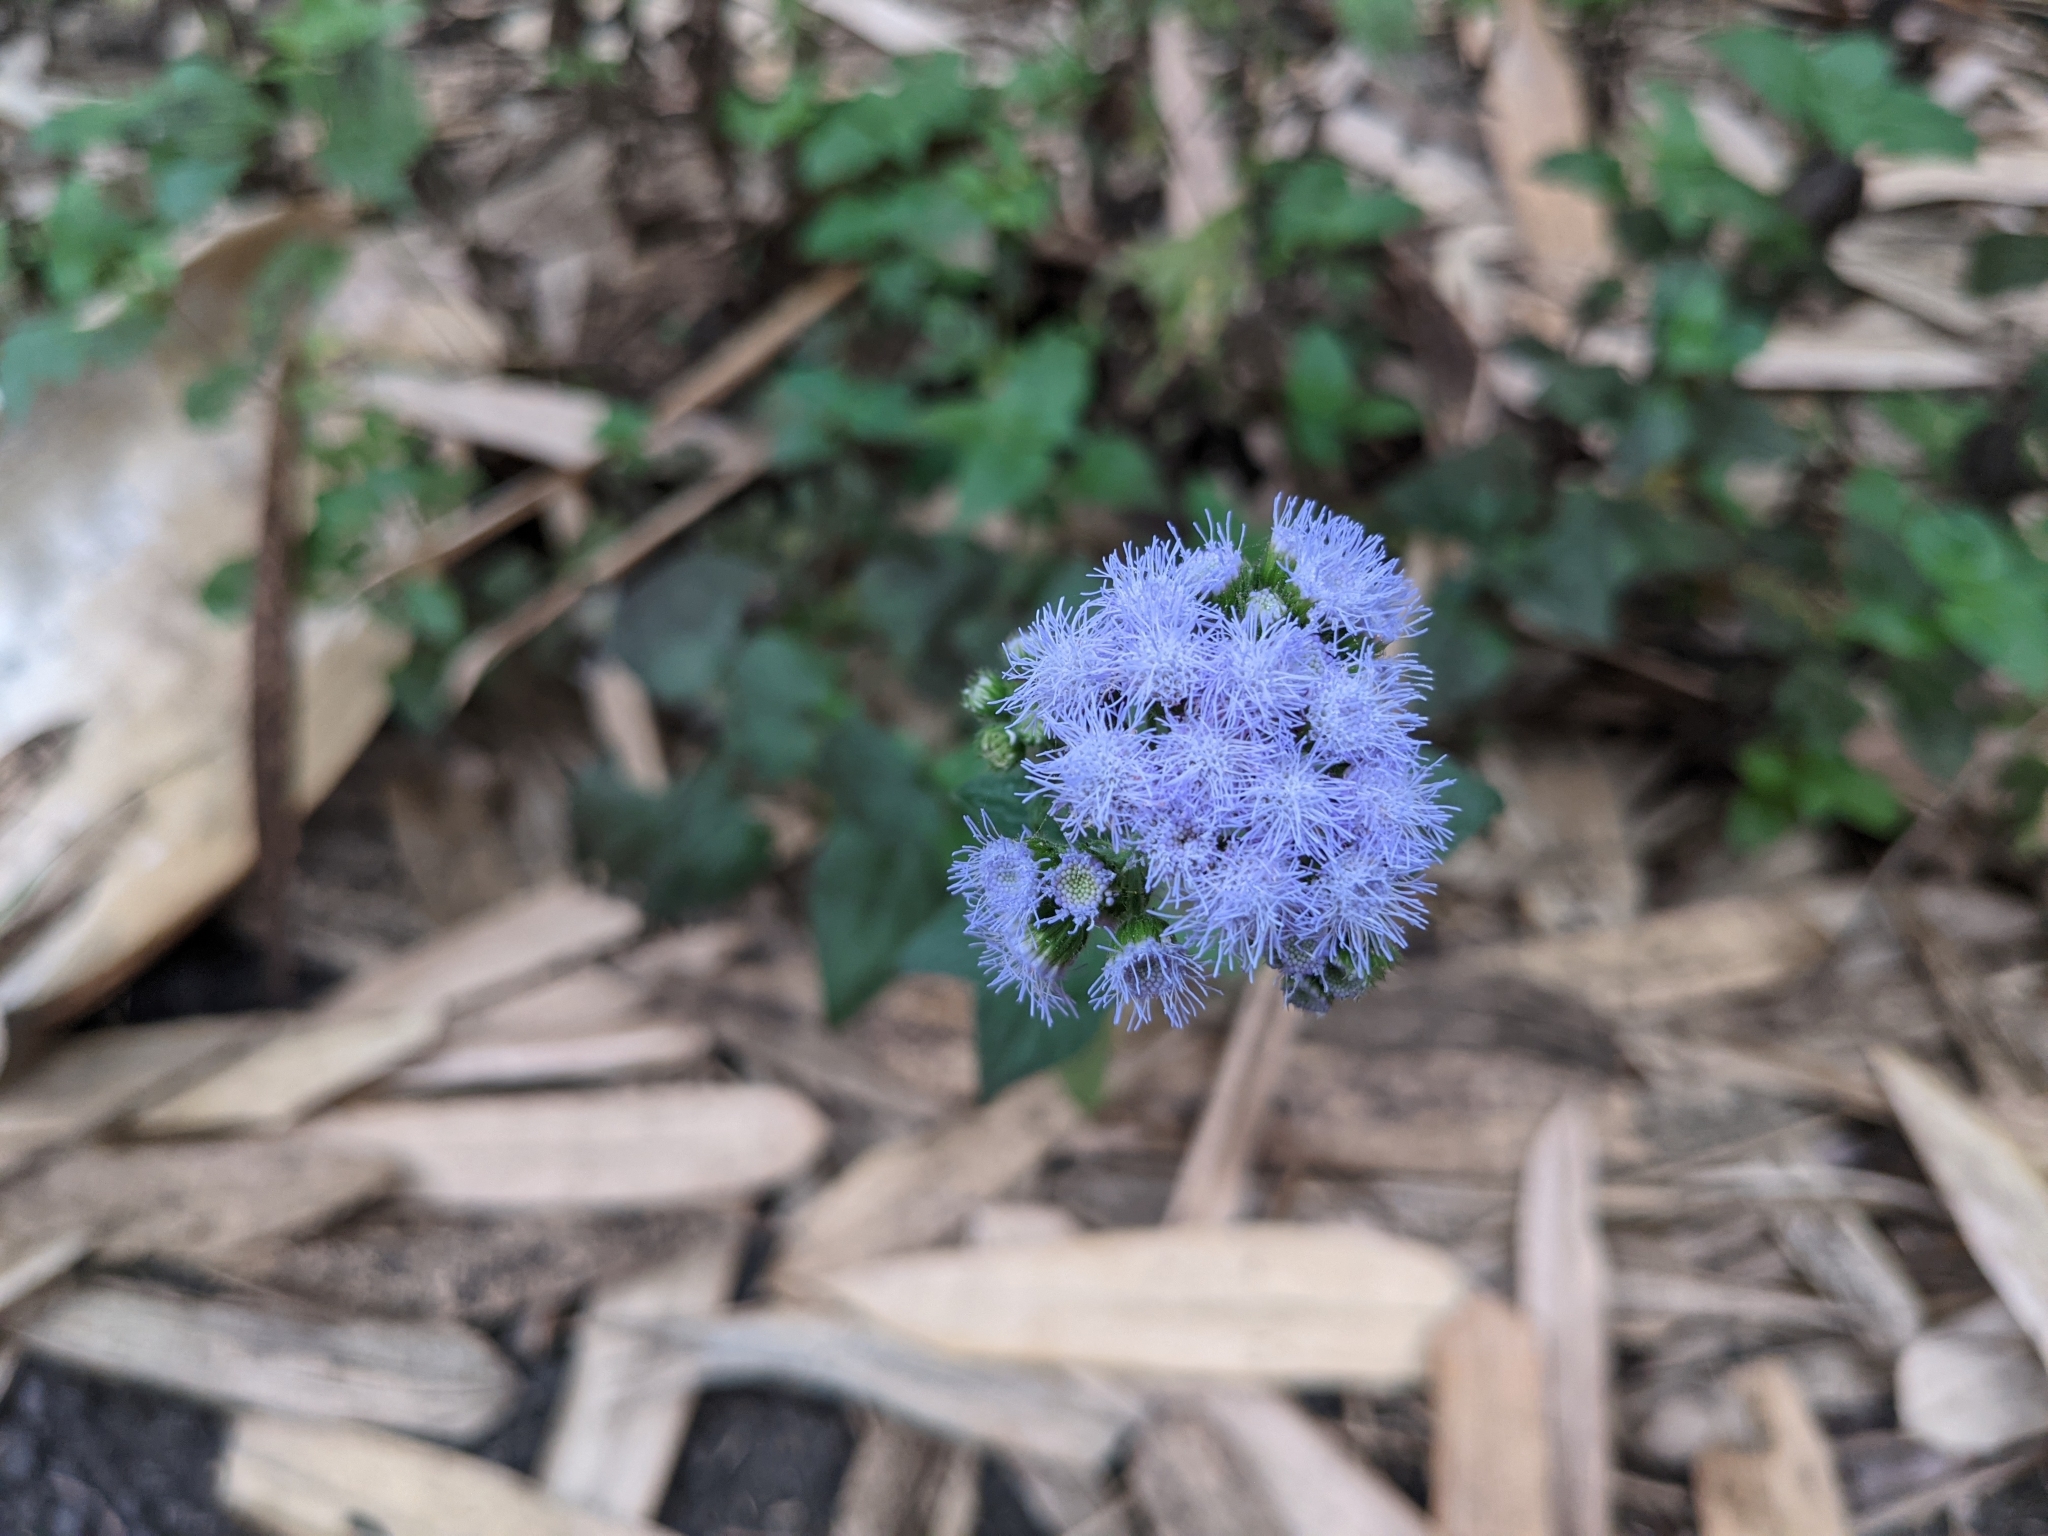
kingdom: Plantae
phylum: Tracheophyta
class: Magnoliopsida
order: Asterales
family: Asteraceae
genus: Ageratum
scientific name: Ageratum houstonianum
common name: Bluemink
